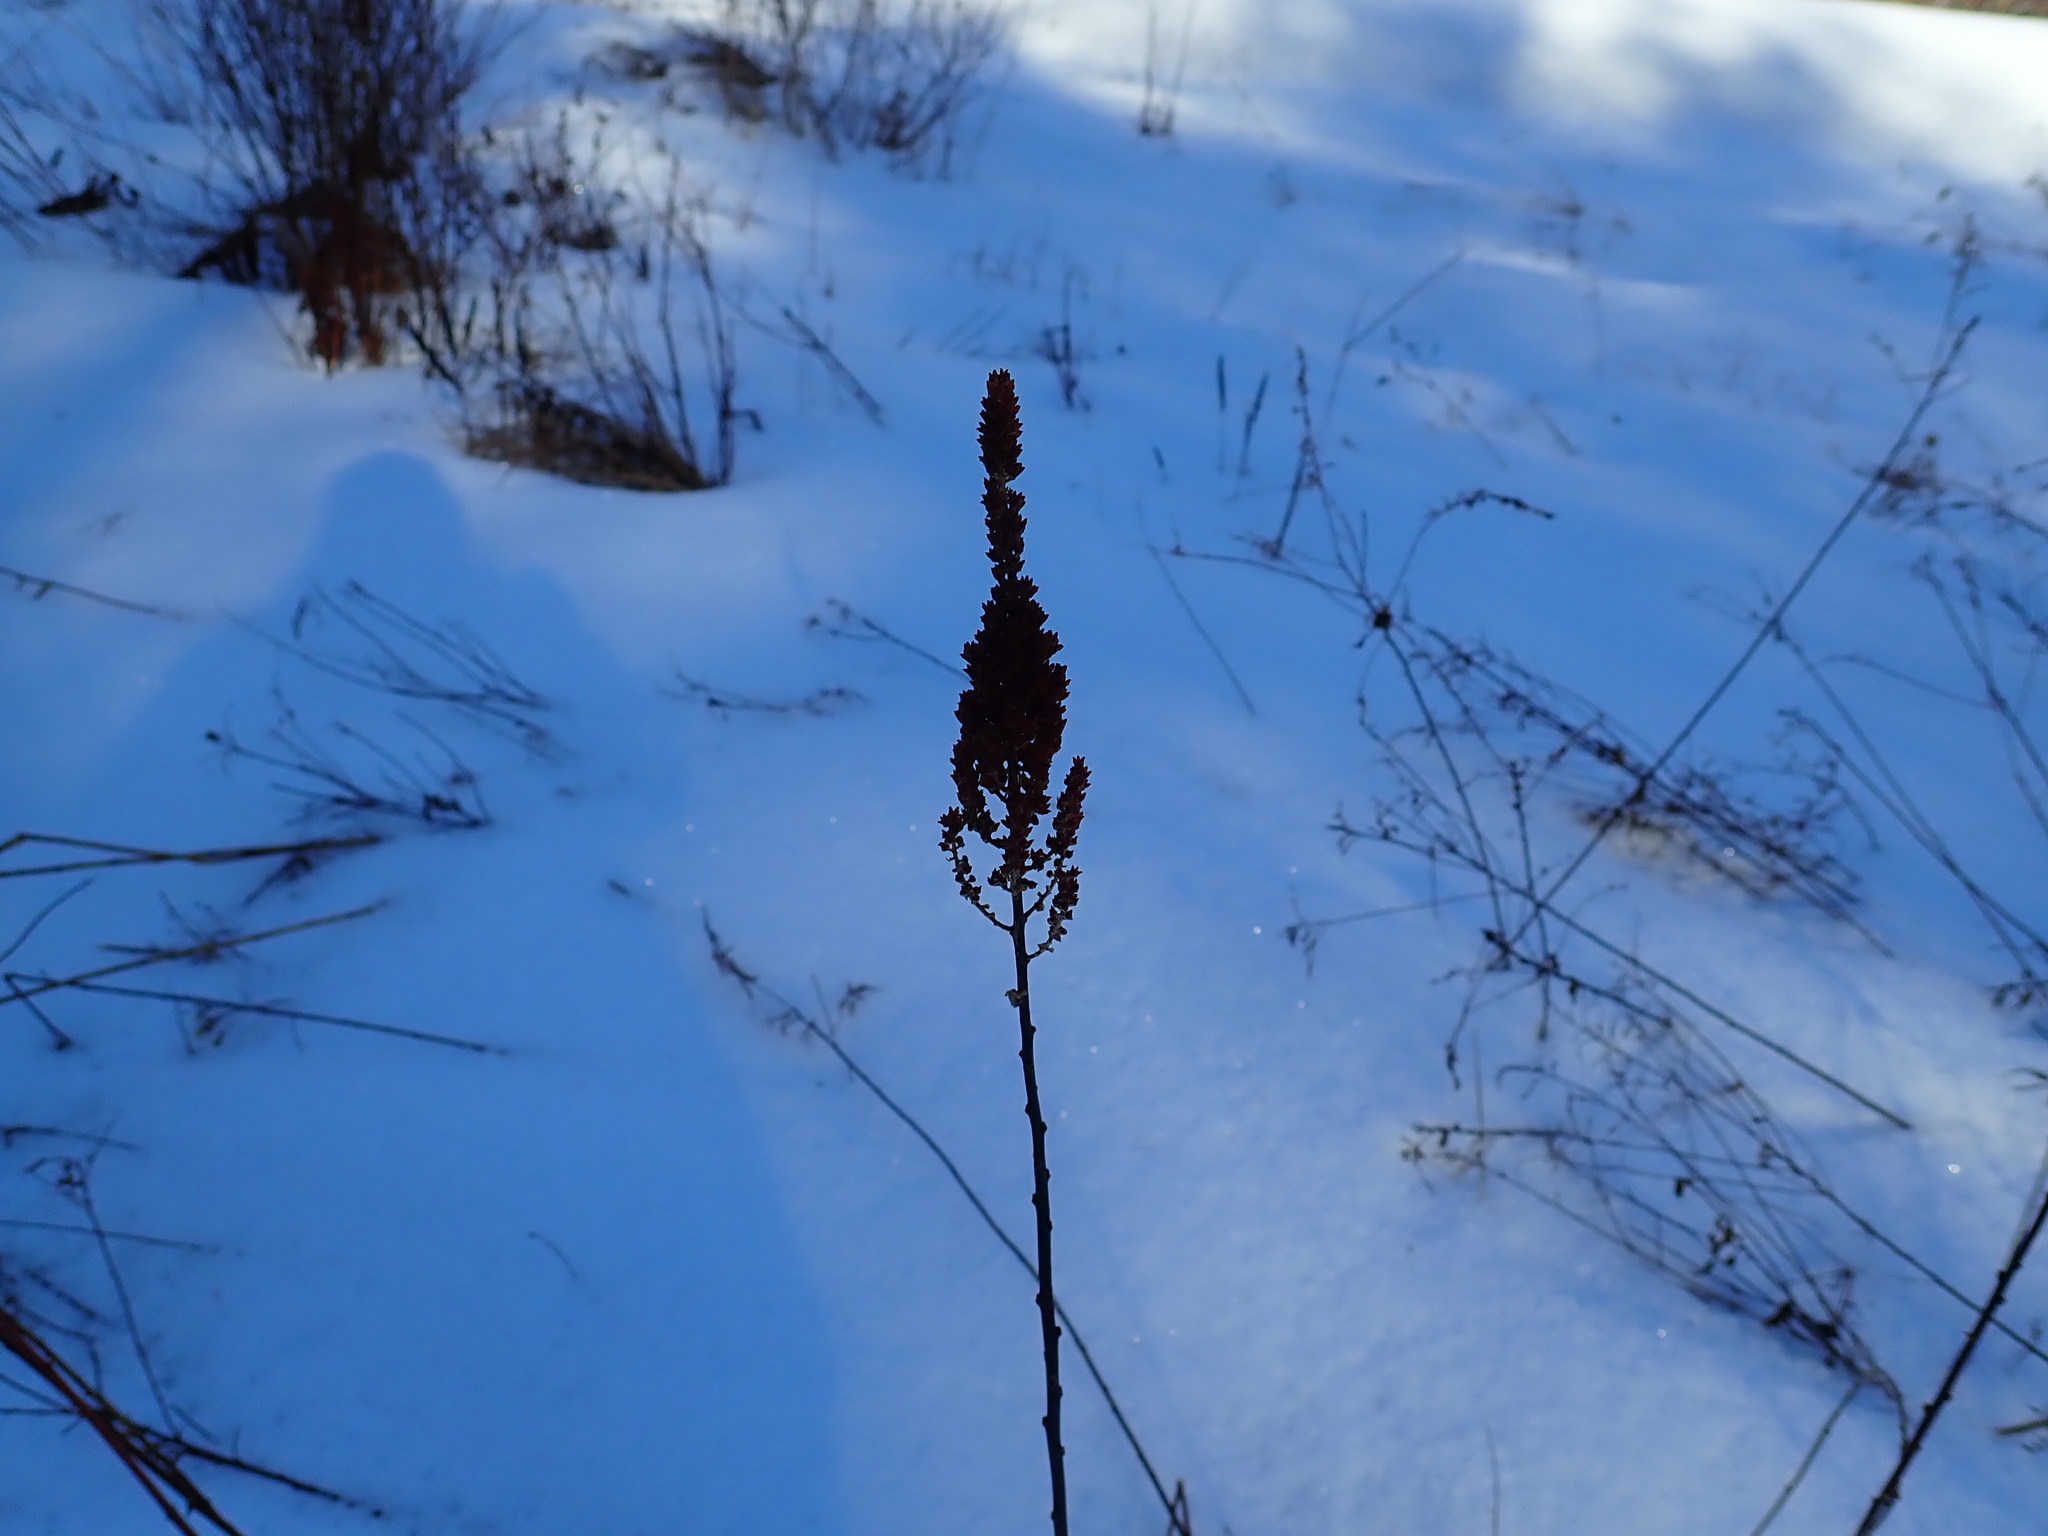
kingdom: Plantae
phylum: Tracheophyta
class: Magnoliopsida
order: Rosales
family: Rosaceae
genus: Spiraea
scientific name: Spiraea tomentosa
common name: Hardhack
